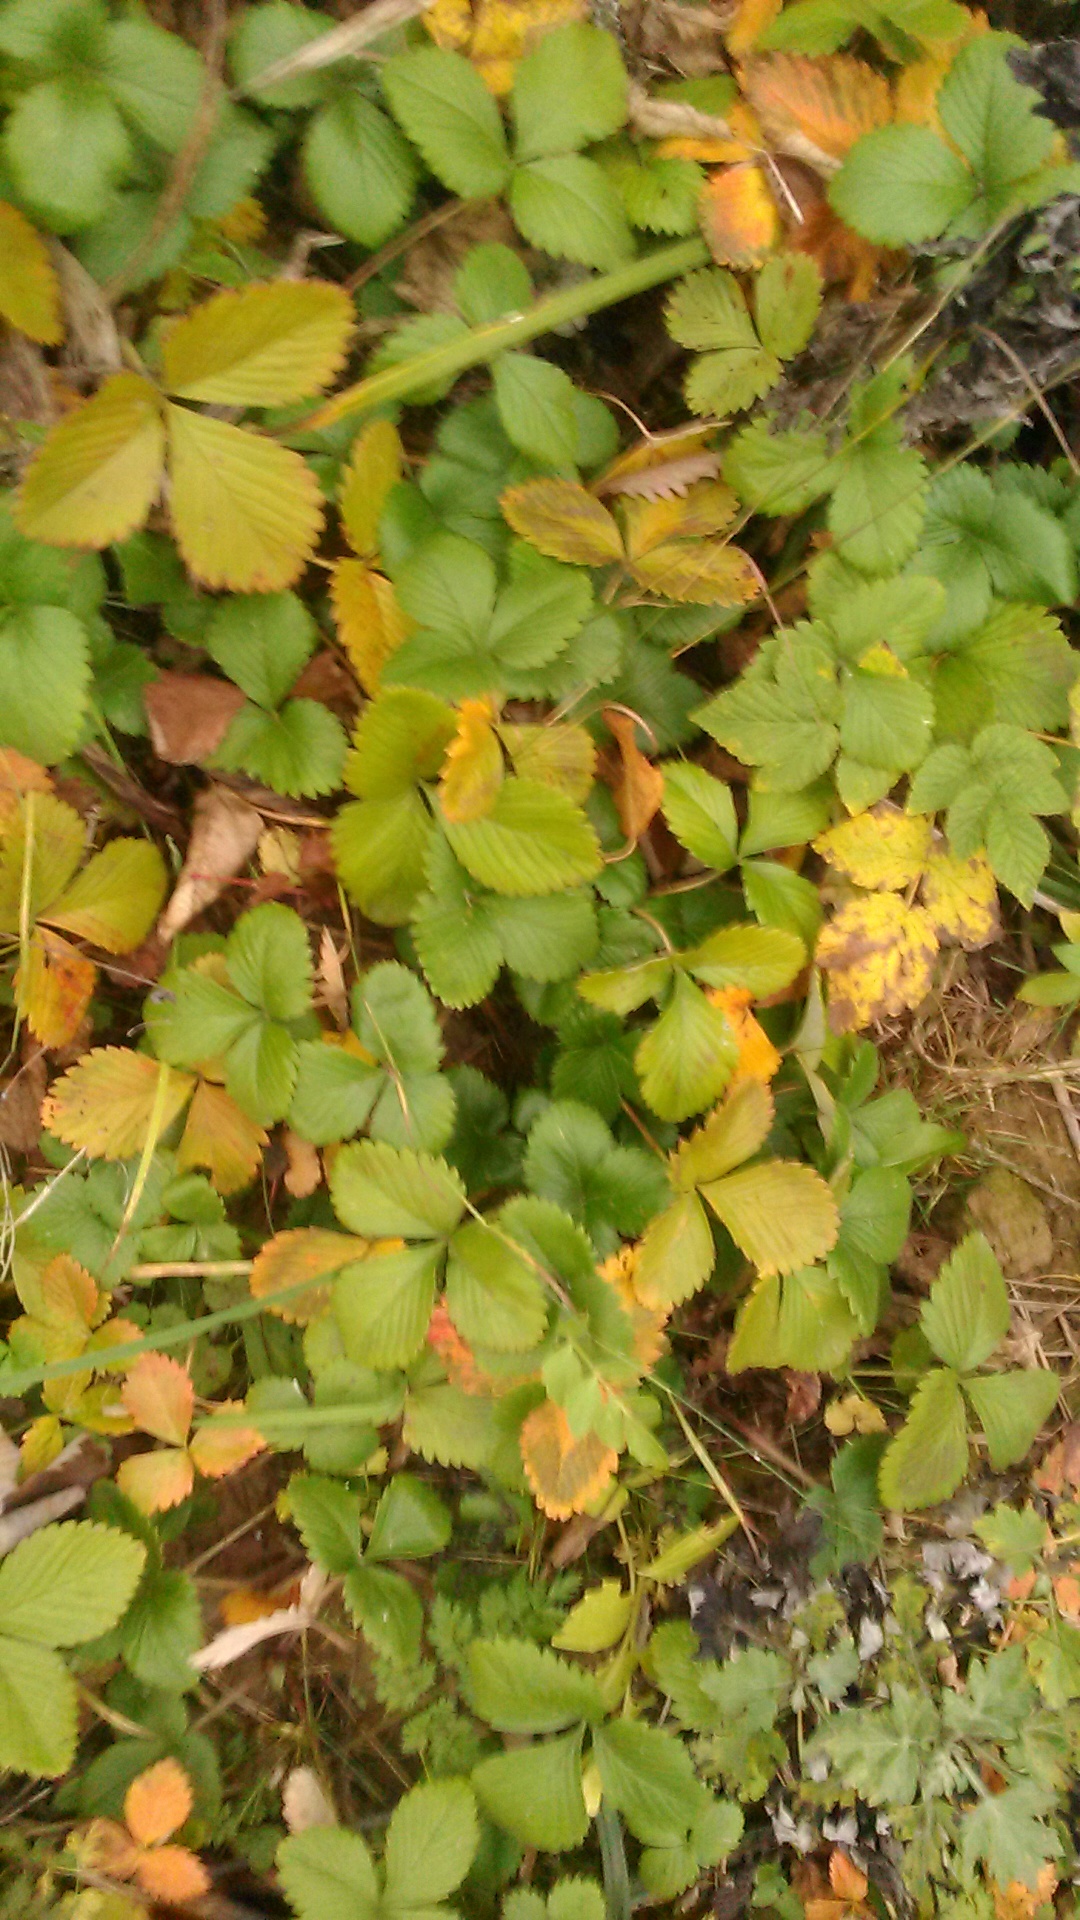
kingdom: Plantae
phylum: Tracheophyta
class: Magnoliopsida
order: Rosales
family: Rosaceae
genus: Fragaria
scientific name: Fragaria vesca
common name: Wild strawberry
